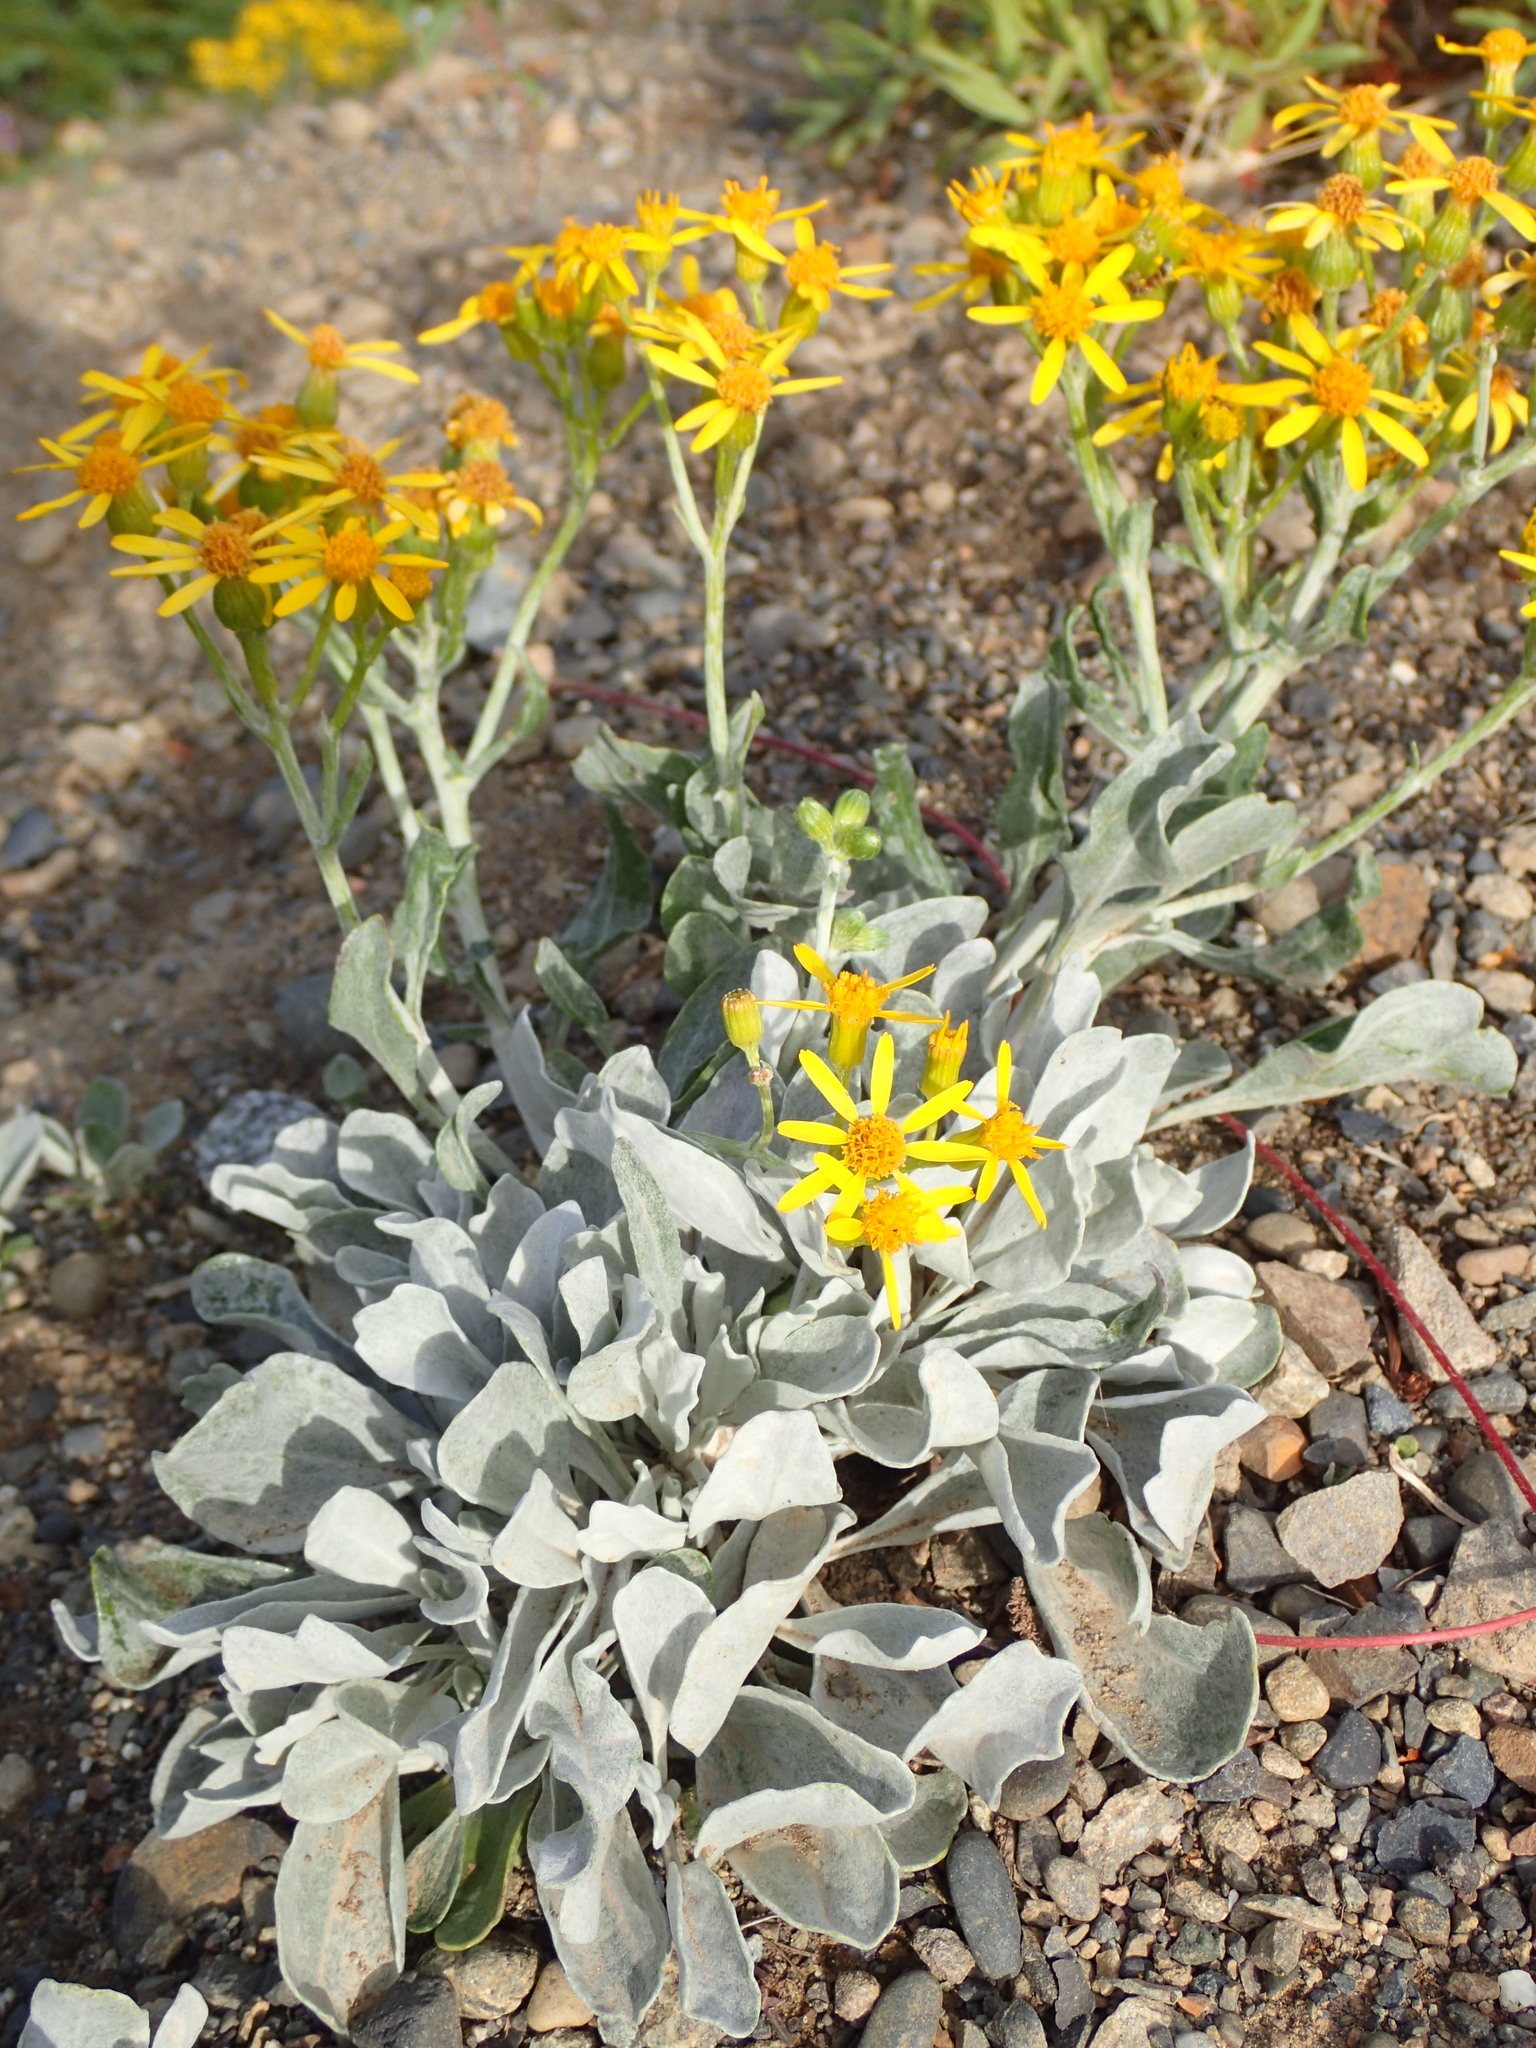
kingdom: Plantae
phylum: Tracheophyta
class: Magnoliopsida
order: Asterales
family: Asteraceae
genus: Packera
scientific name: Packera cana
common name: Woolly groundsel
